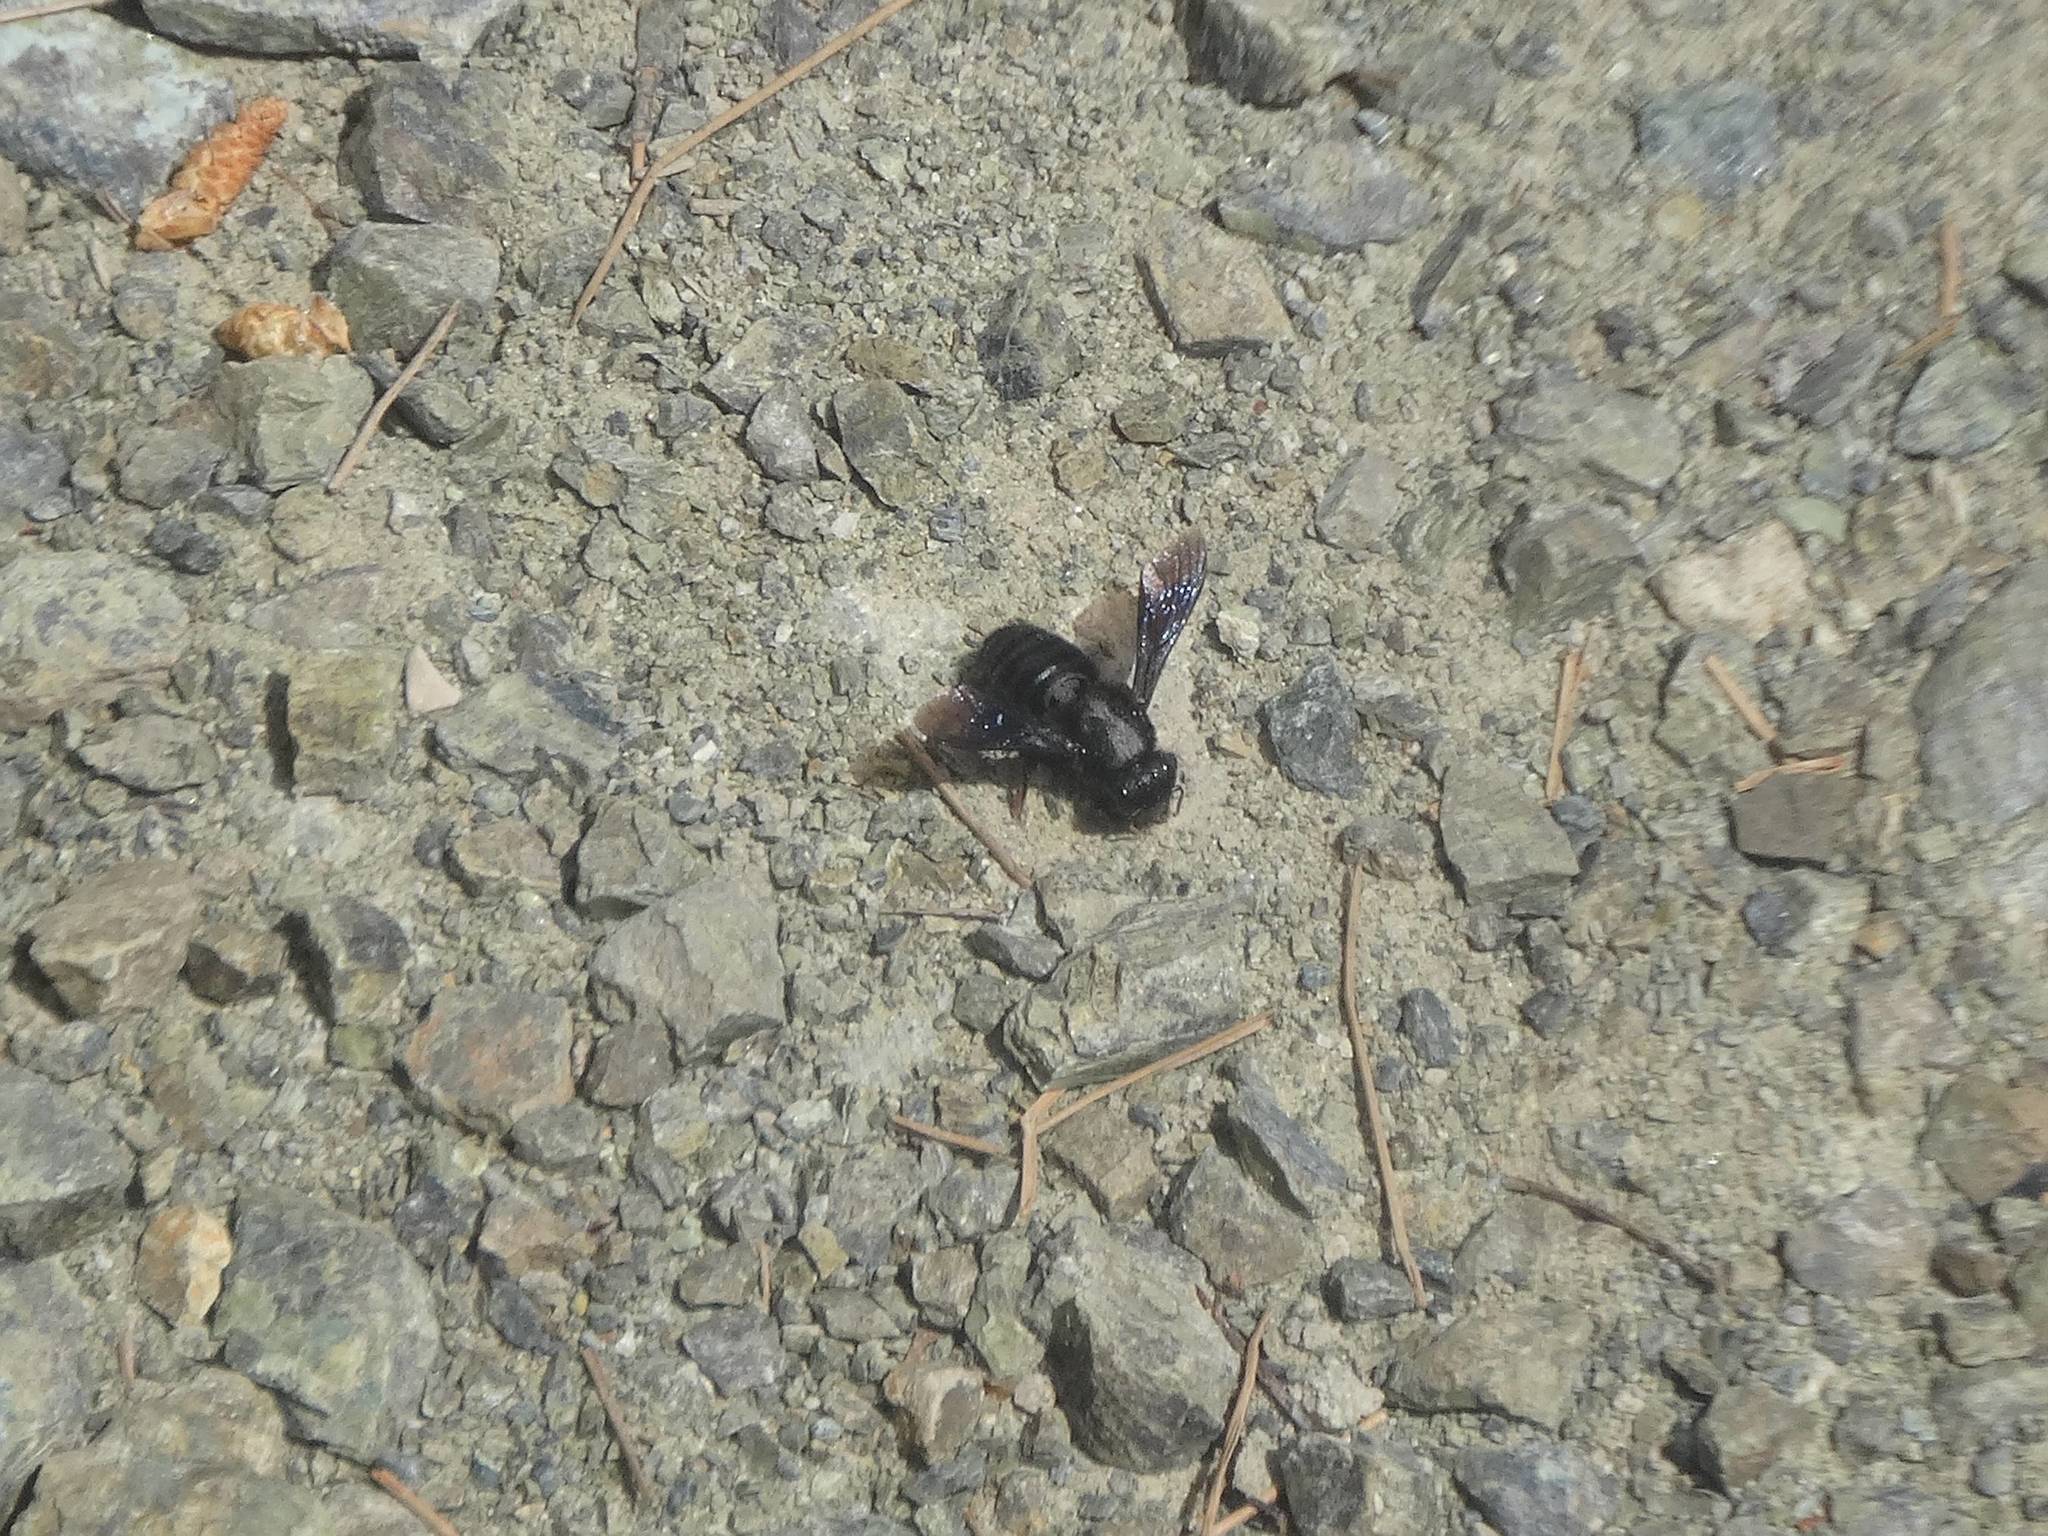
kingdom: Animalia
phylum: Arthropoda
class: Insecta
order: Hymenoptera
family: Megachilidae
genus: Megachile
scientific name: Megachile parietina
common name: Black mud bee
